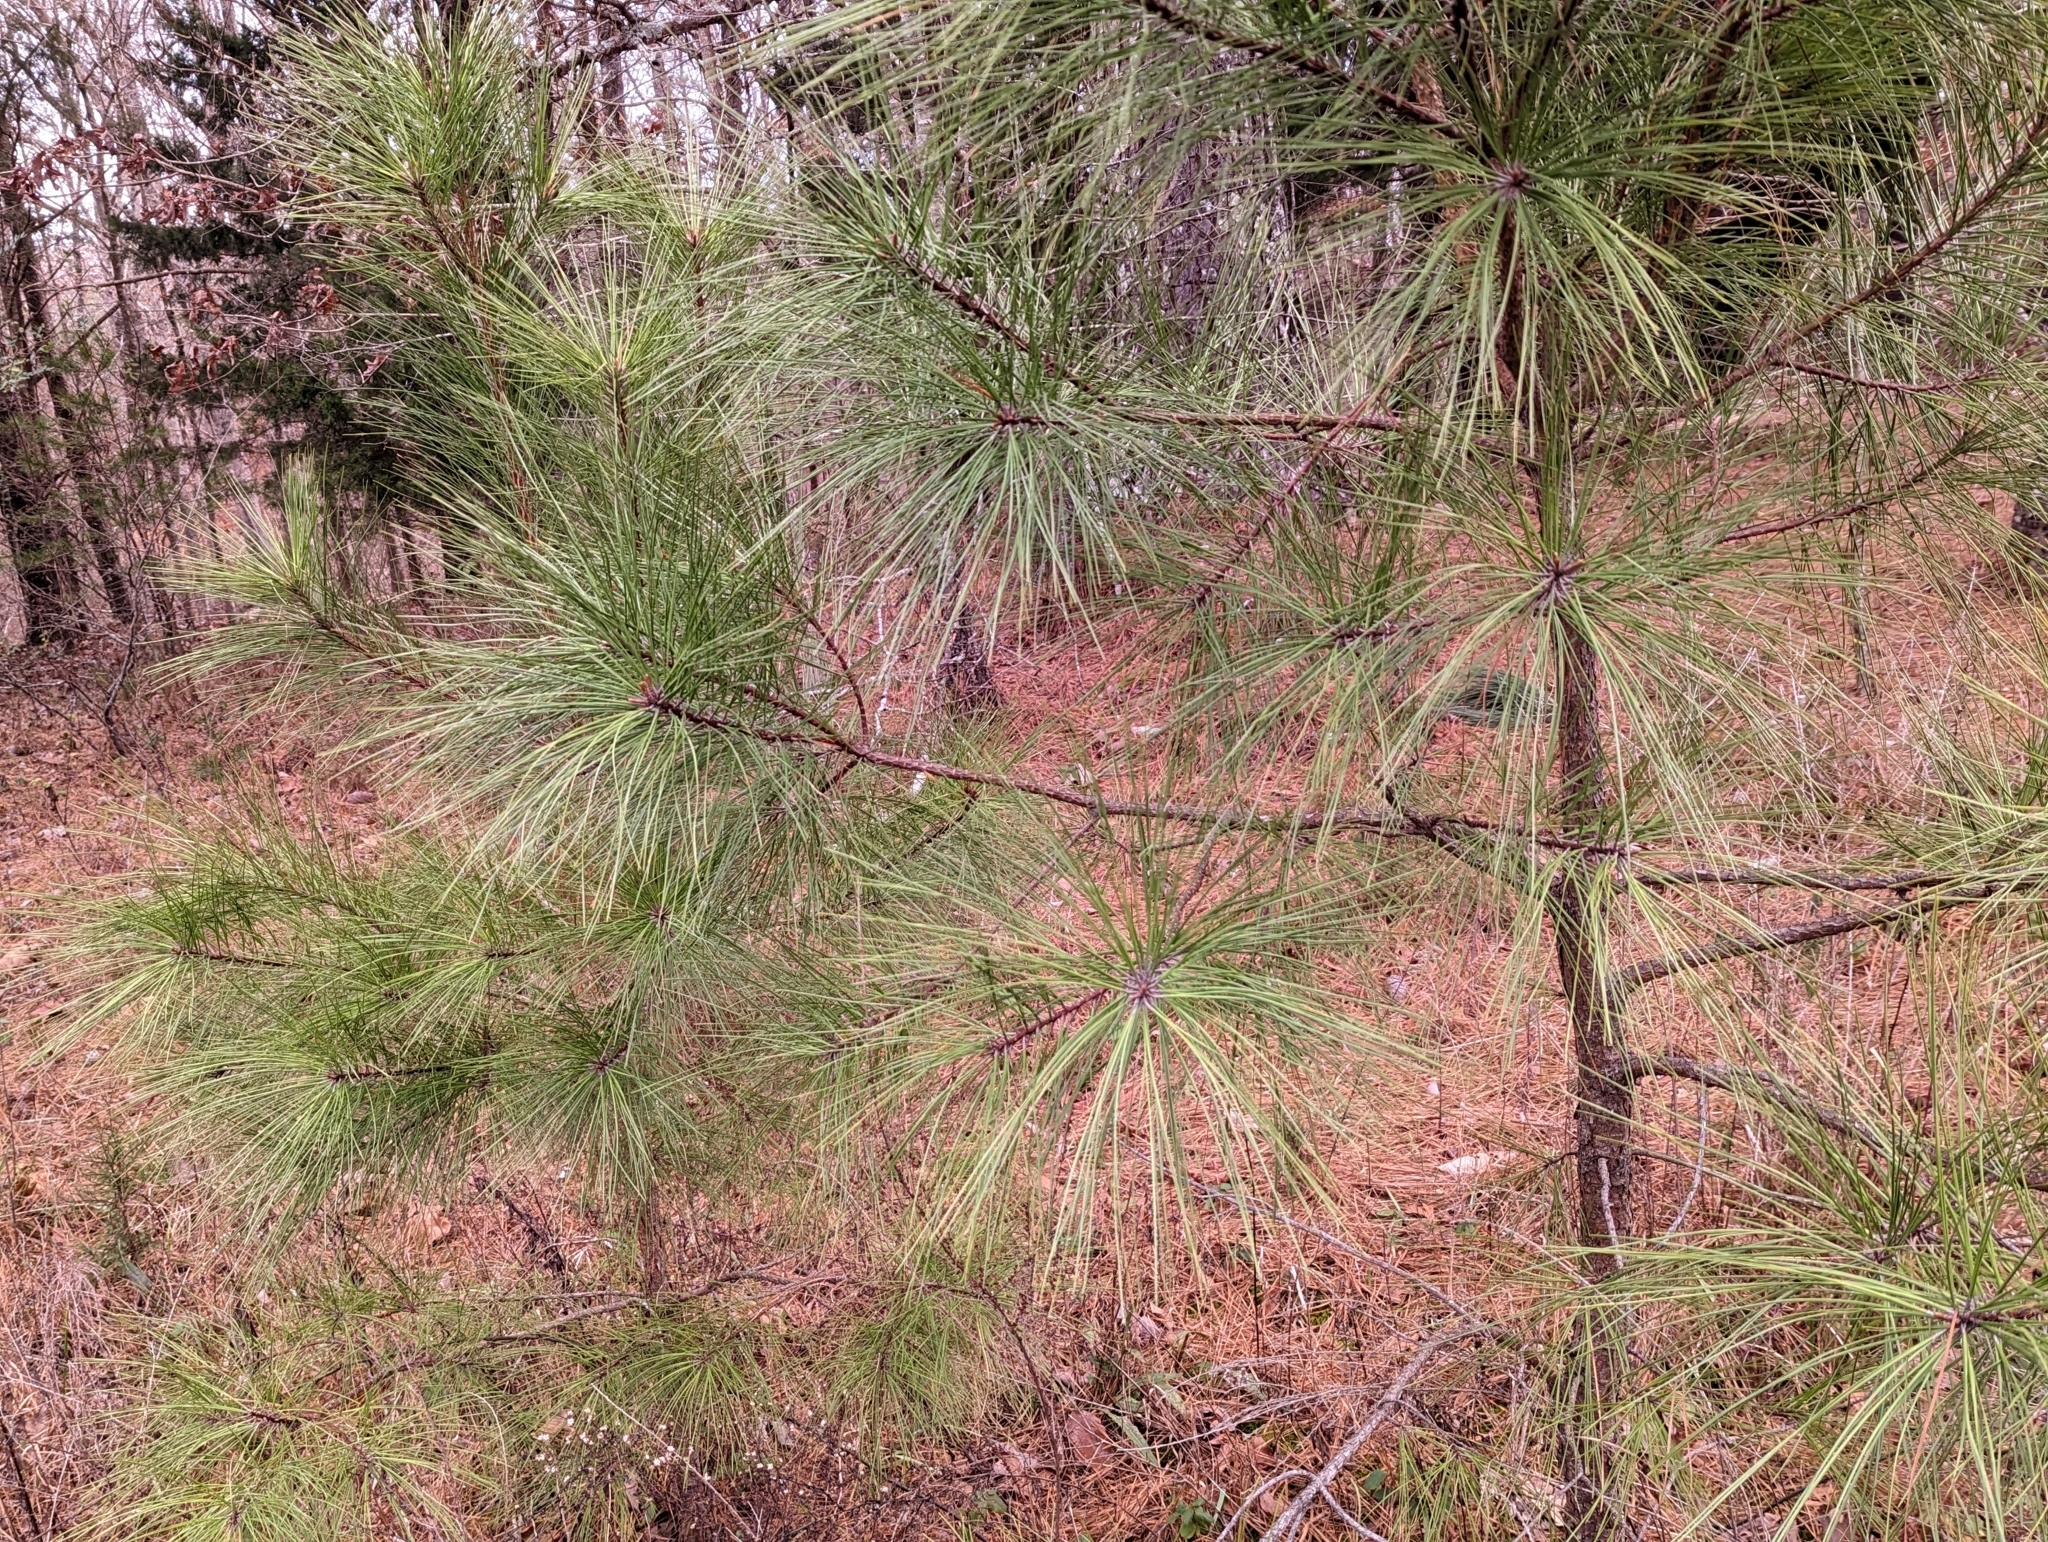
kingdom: Plantae
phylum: Tracheophyta
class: Pinopsida
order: Pinales
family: Pinaceae
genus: Pinus
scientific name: Pinus taeda
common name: Loblolly pine
